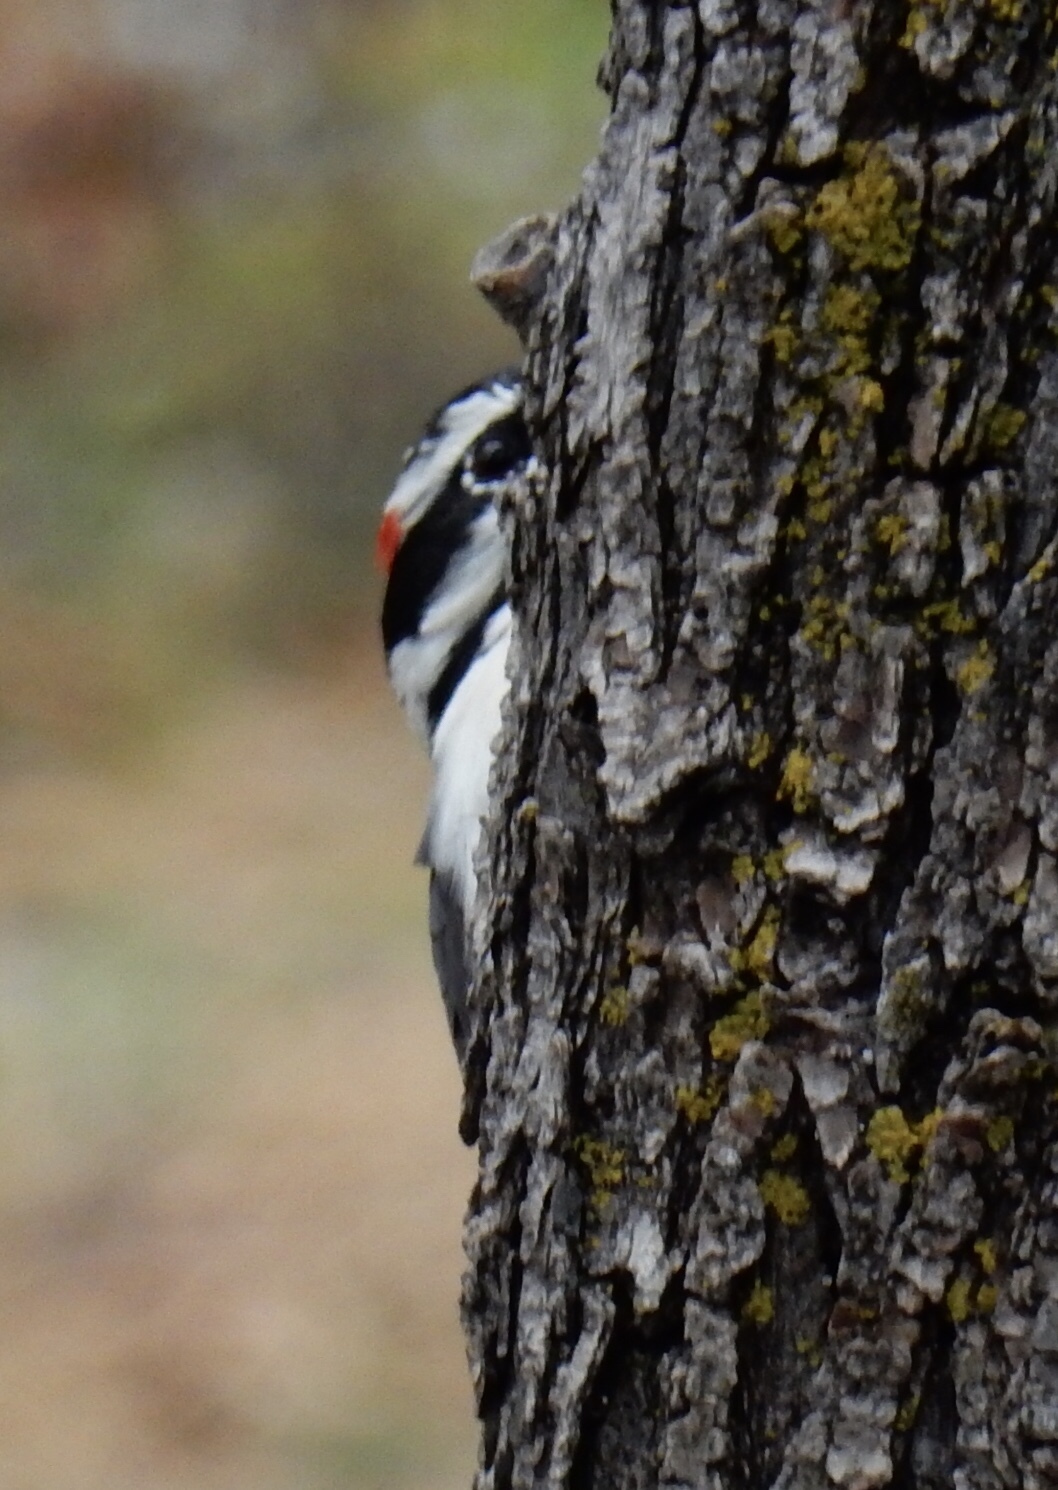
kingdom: Animalia
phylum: Chordata
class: Aves
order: Piciformes
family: Picidae
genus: Leuconotopicus
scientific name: Leuconotopicus villosus
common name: Hairy woodpecker
